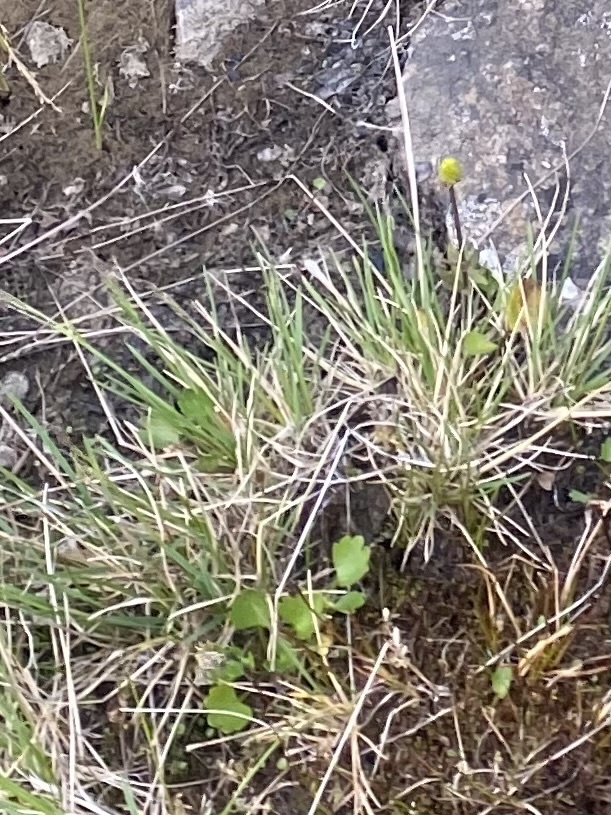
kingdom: Plantae
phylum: Tracheophyta
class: Magnoliopsida
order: Ranunculales
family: Ranunculaceae
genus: Ranunculus
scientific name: Ranunculus sulphureus
